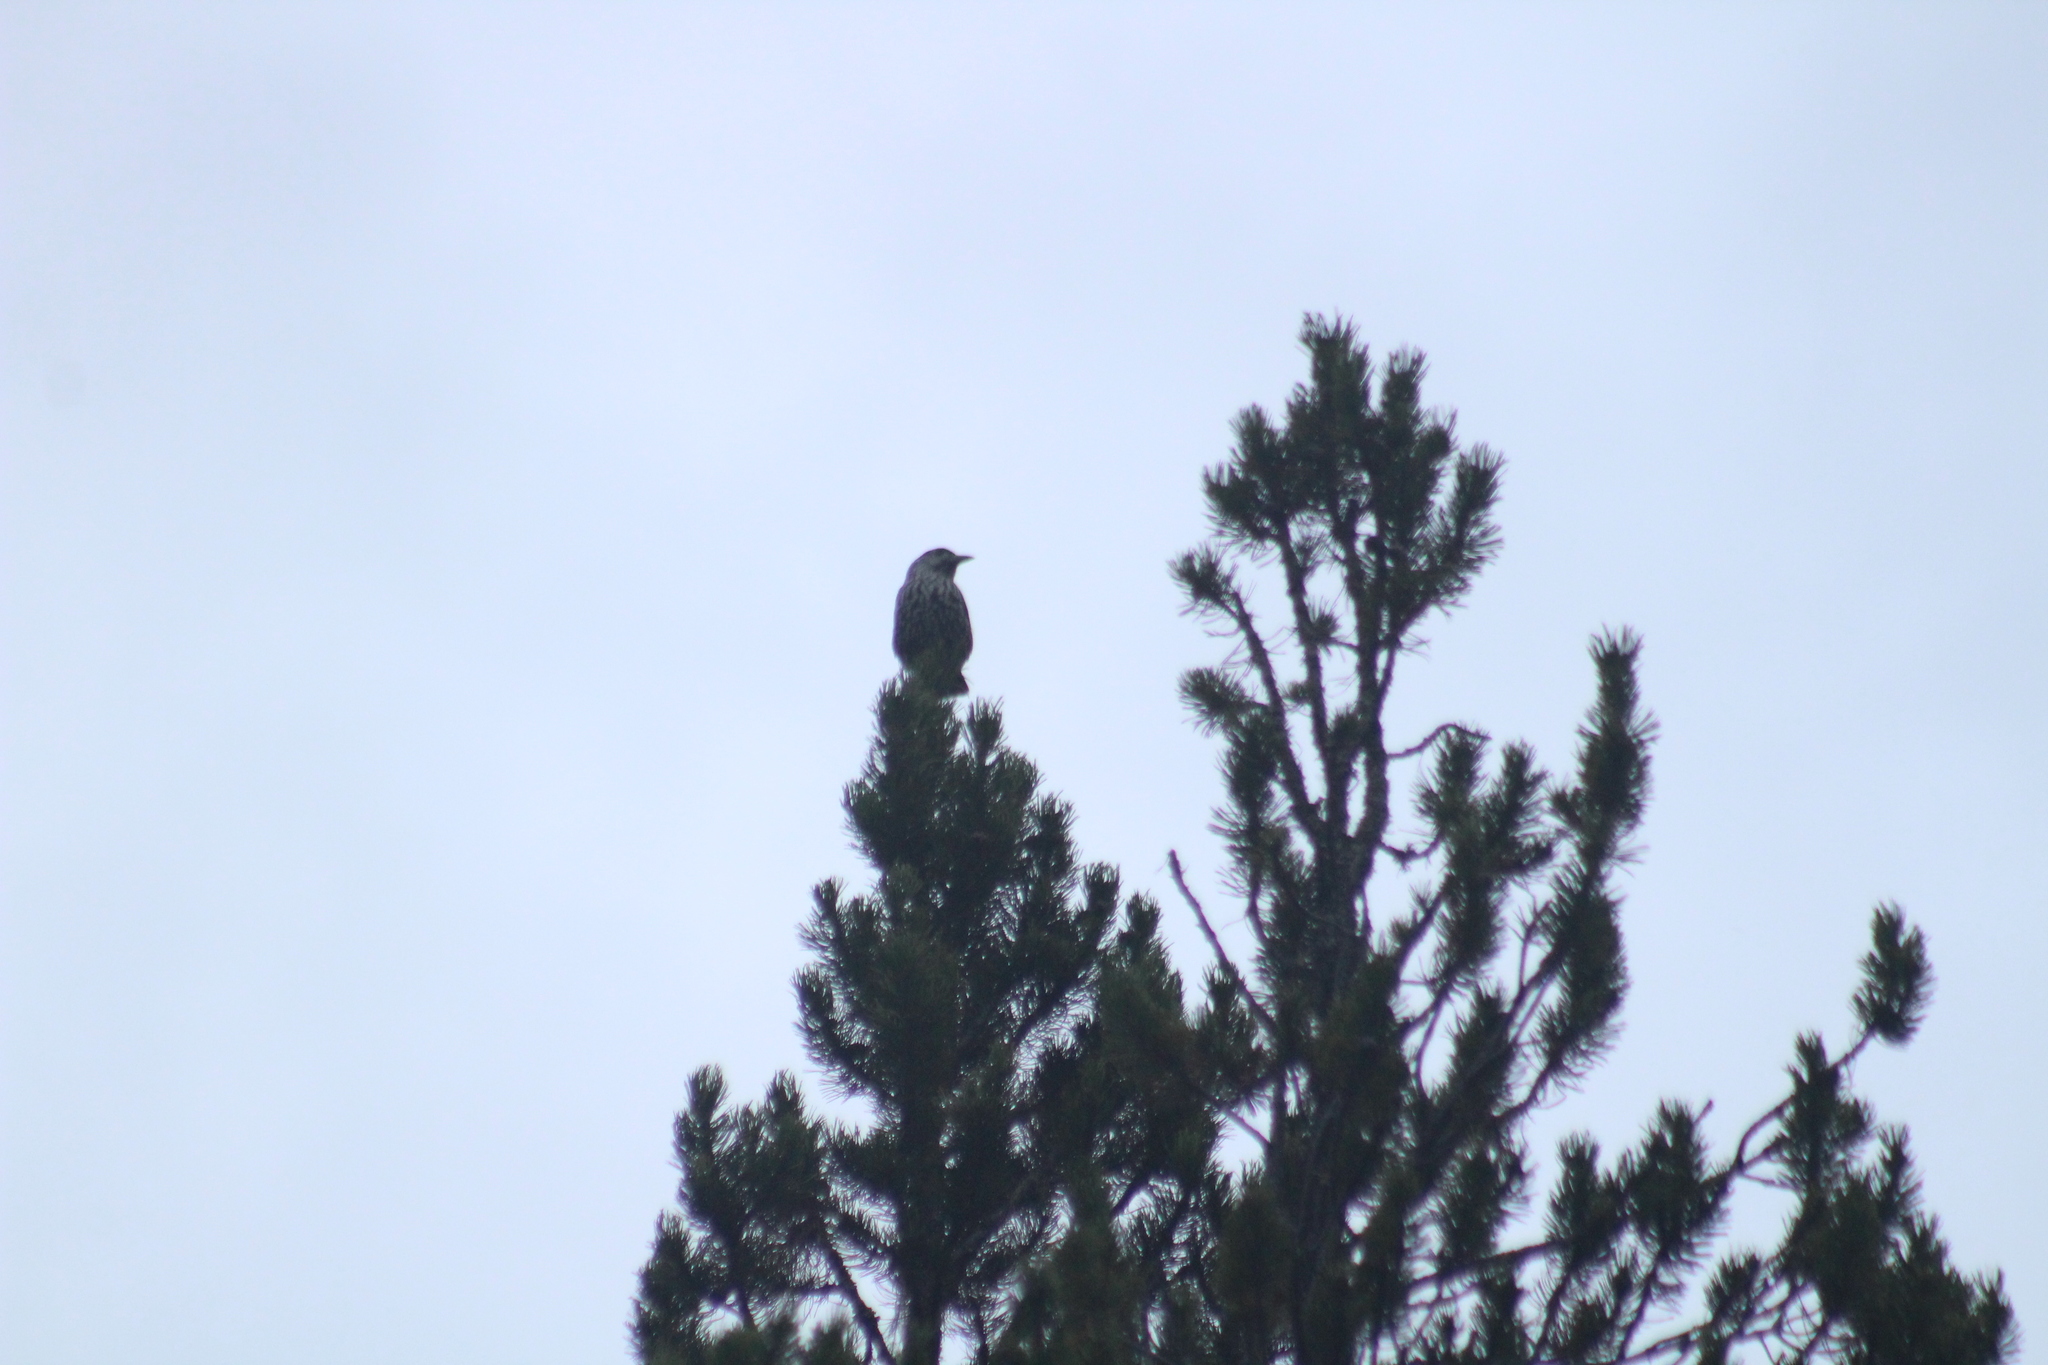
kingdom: Animalia
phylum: Chordata
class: Aves
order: Passeriformes
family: Corvidae
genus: Nucifraga
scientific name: Nucifraga caryocatactes
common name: Spotted nutcracker
